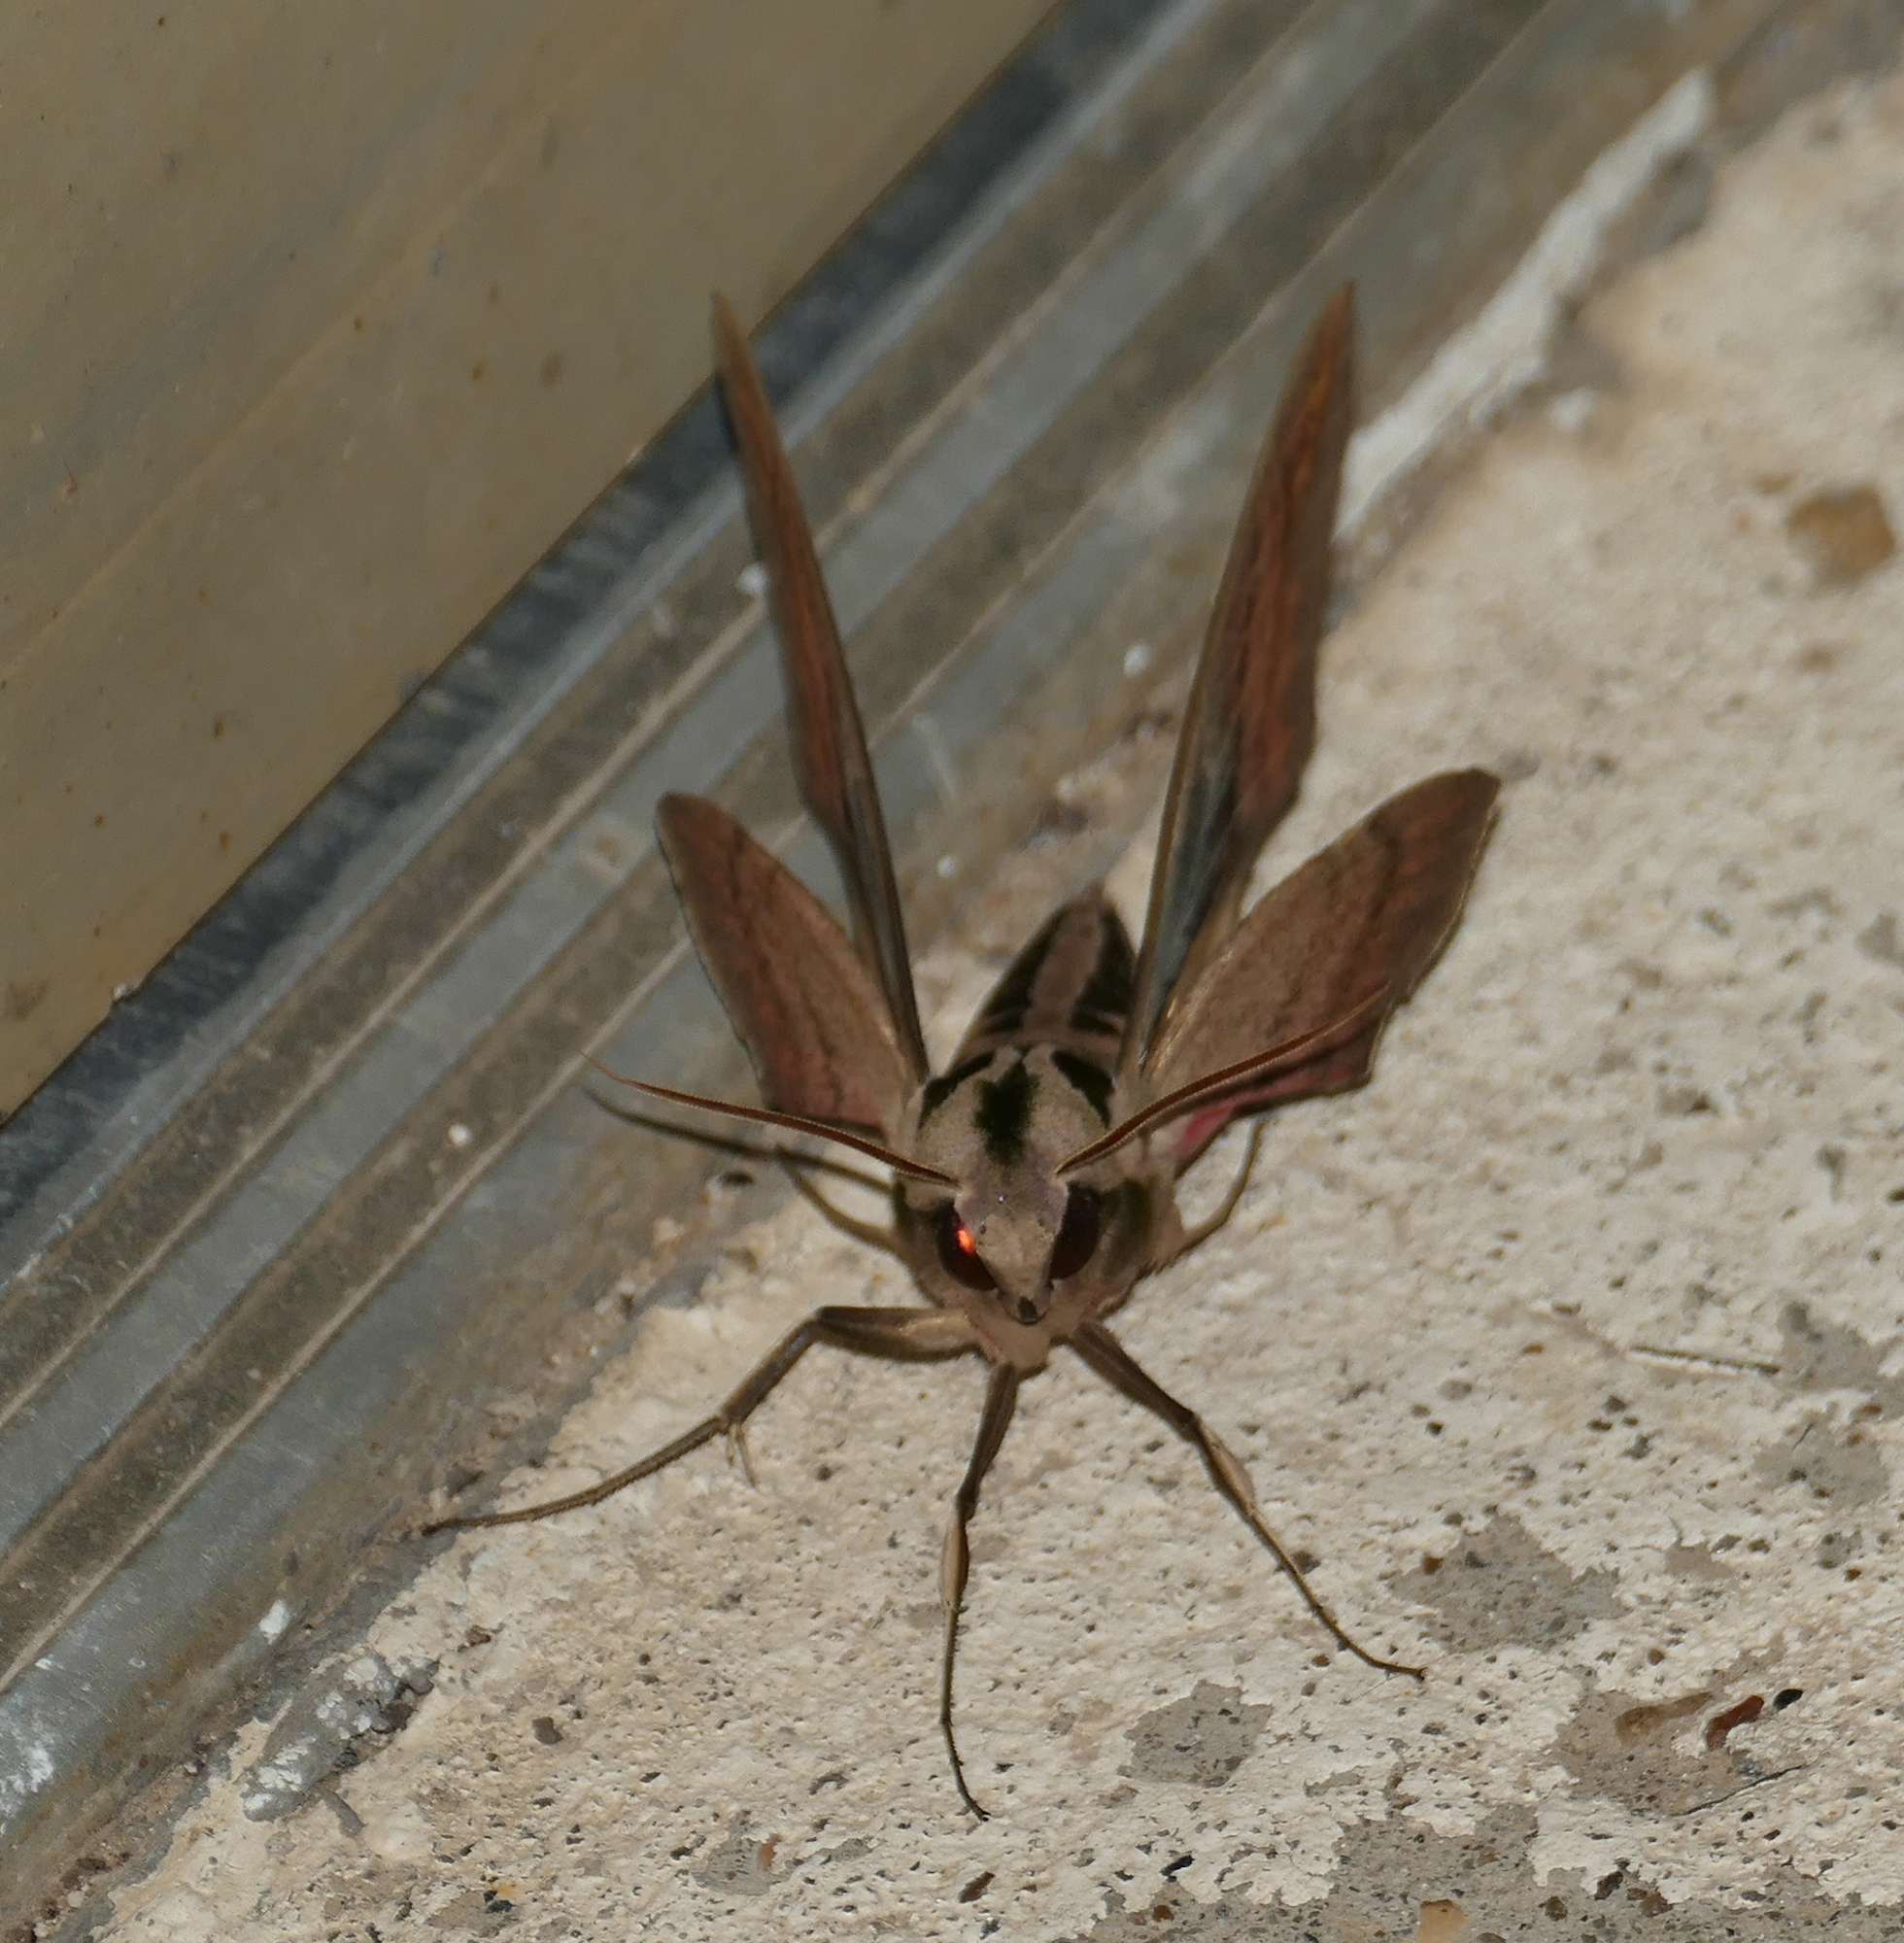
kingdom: Animalia
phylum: Arthropoda
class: Insecta
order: Lepidoptera
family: Sphingidae
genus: Eumorpha
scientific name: Eumorpha fasciatus
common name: Banded sphinx
